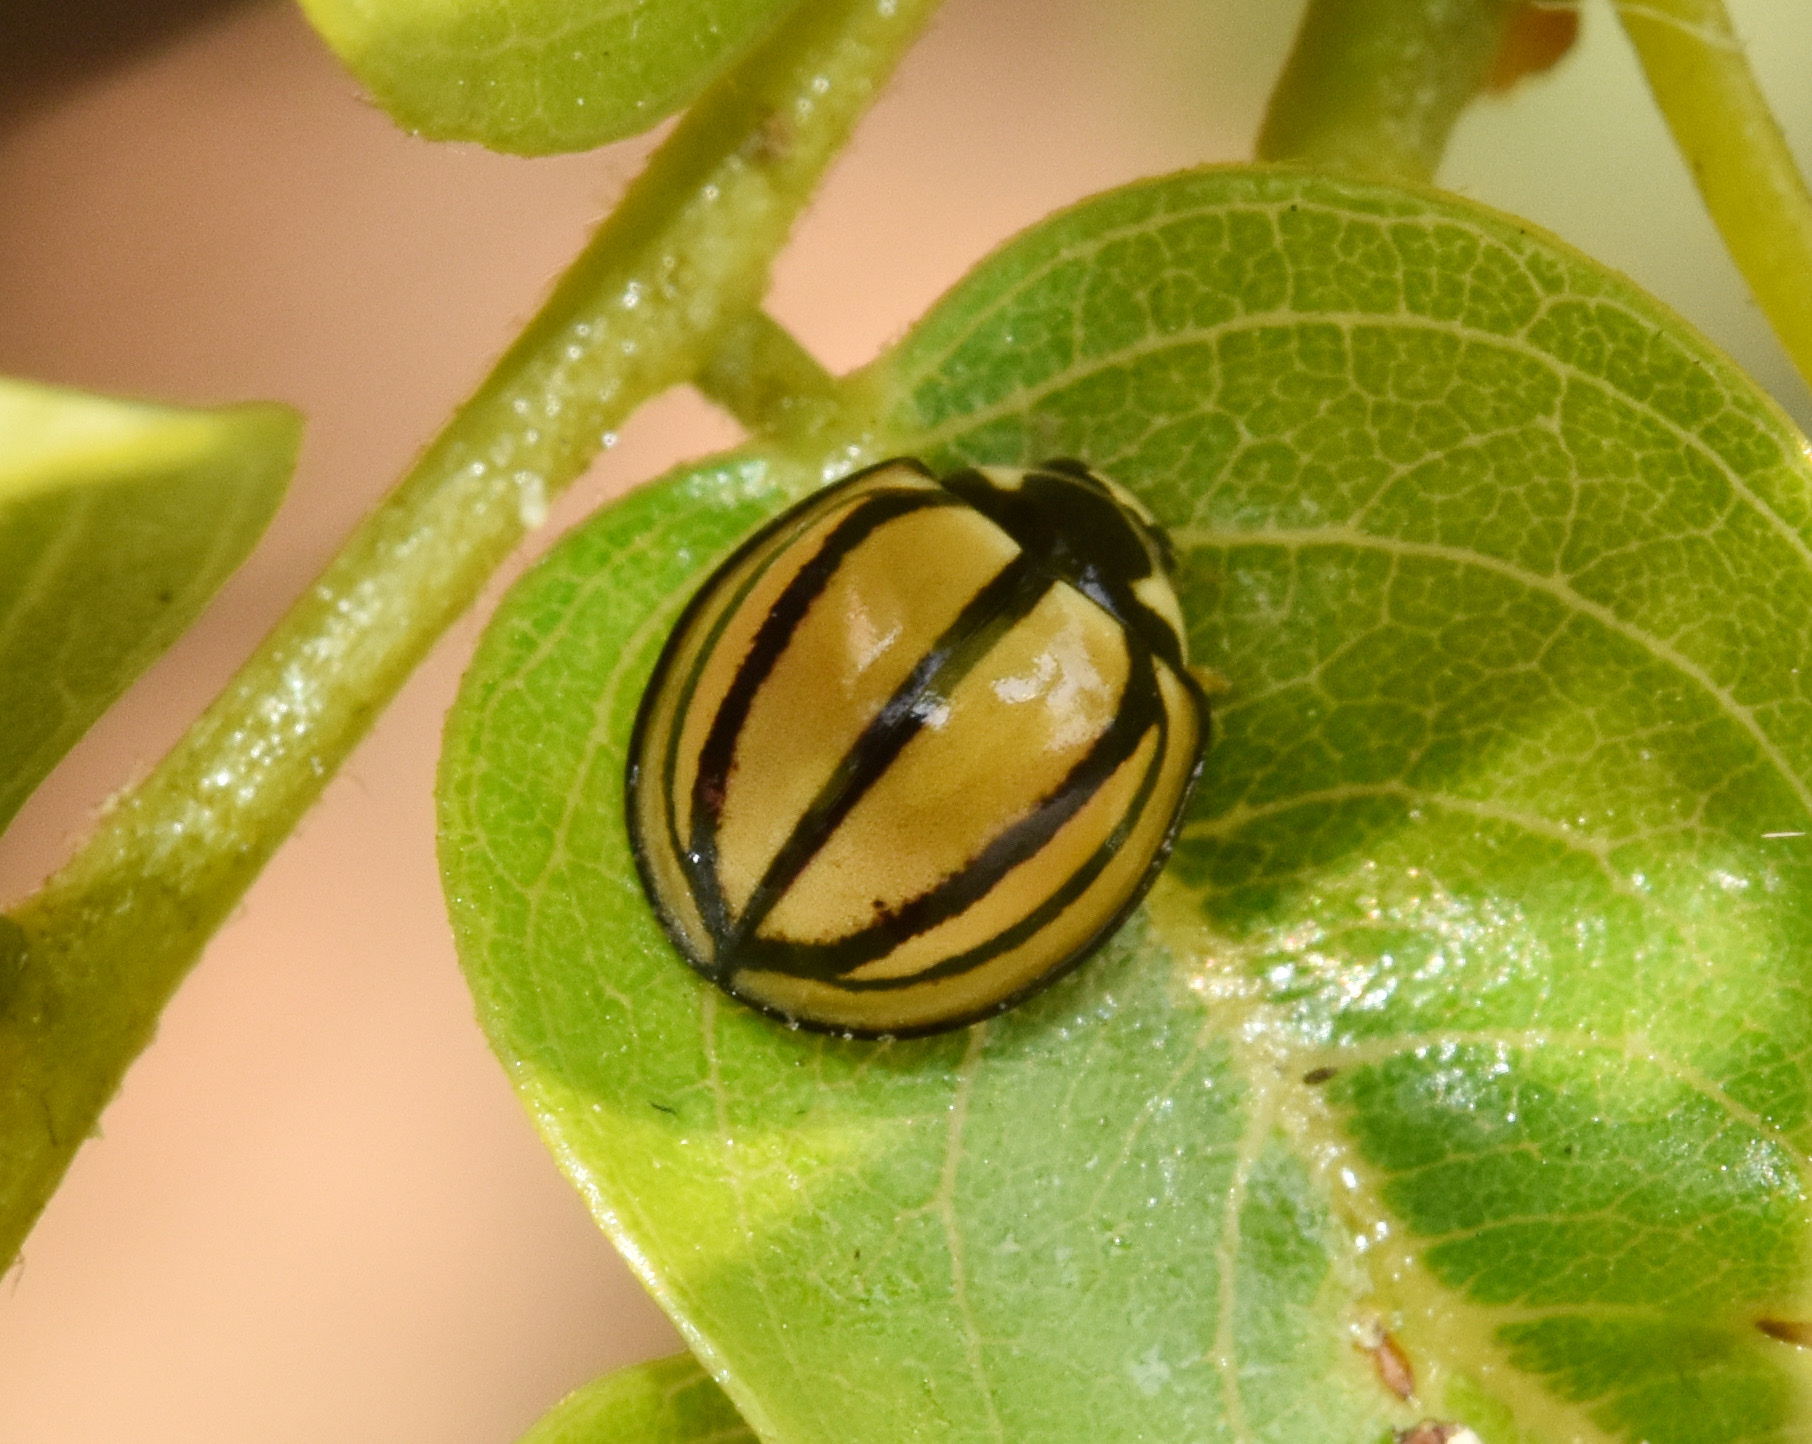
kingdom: Animalia
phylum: Arthropoda
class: Insecta
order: Coleoptera
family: Coccinellidae
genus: Cheilomenes
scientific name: Cheilomenes propinqua
